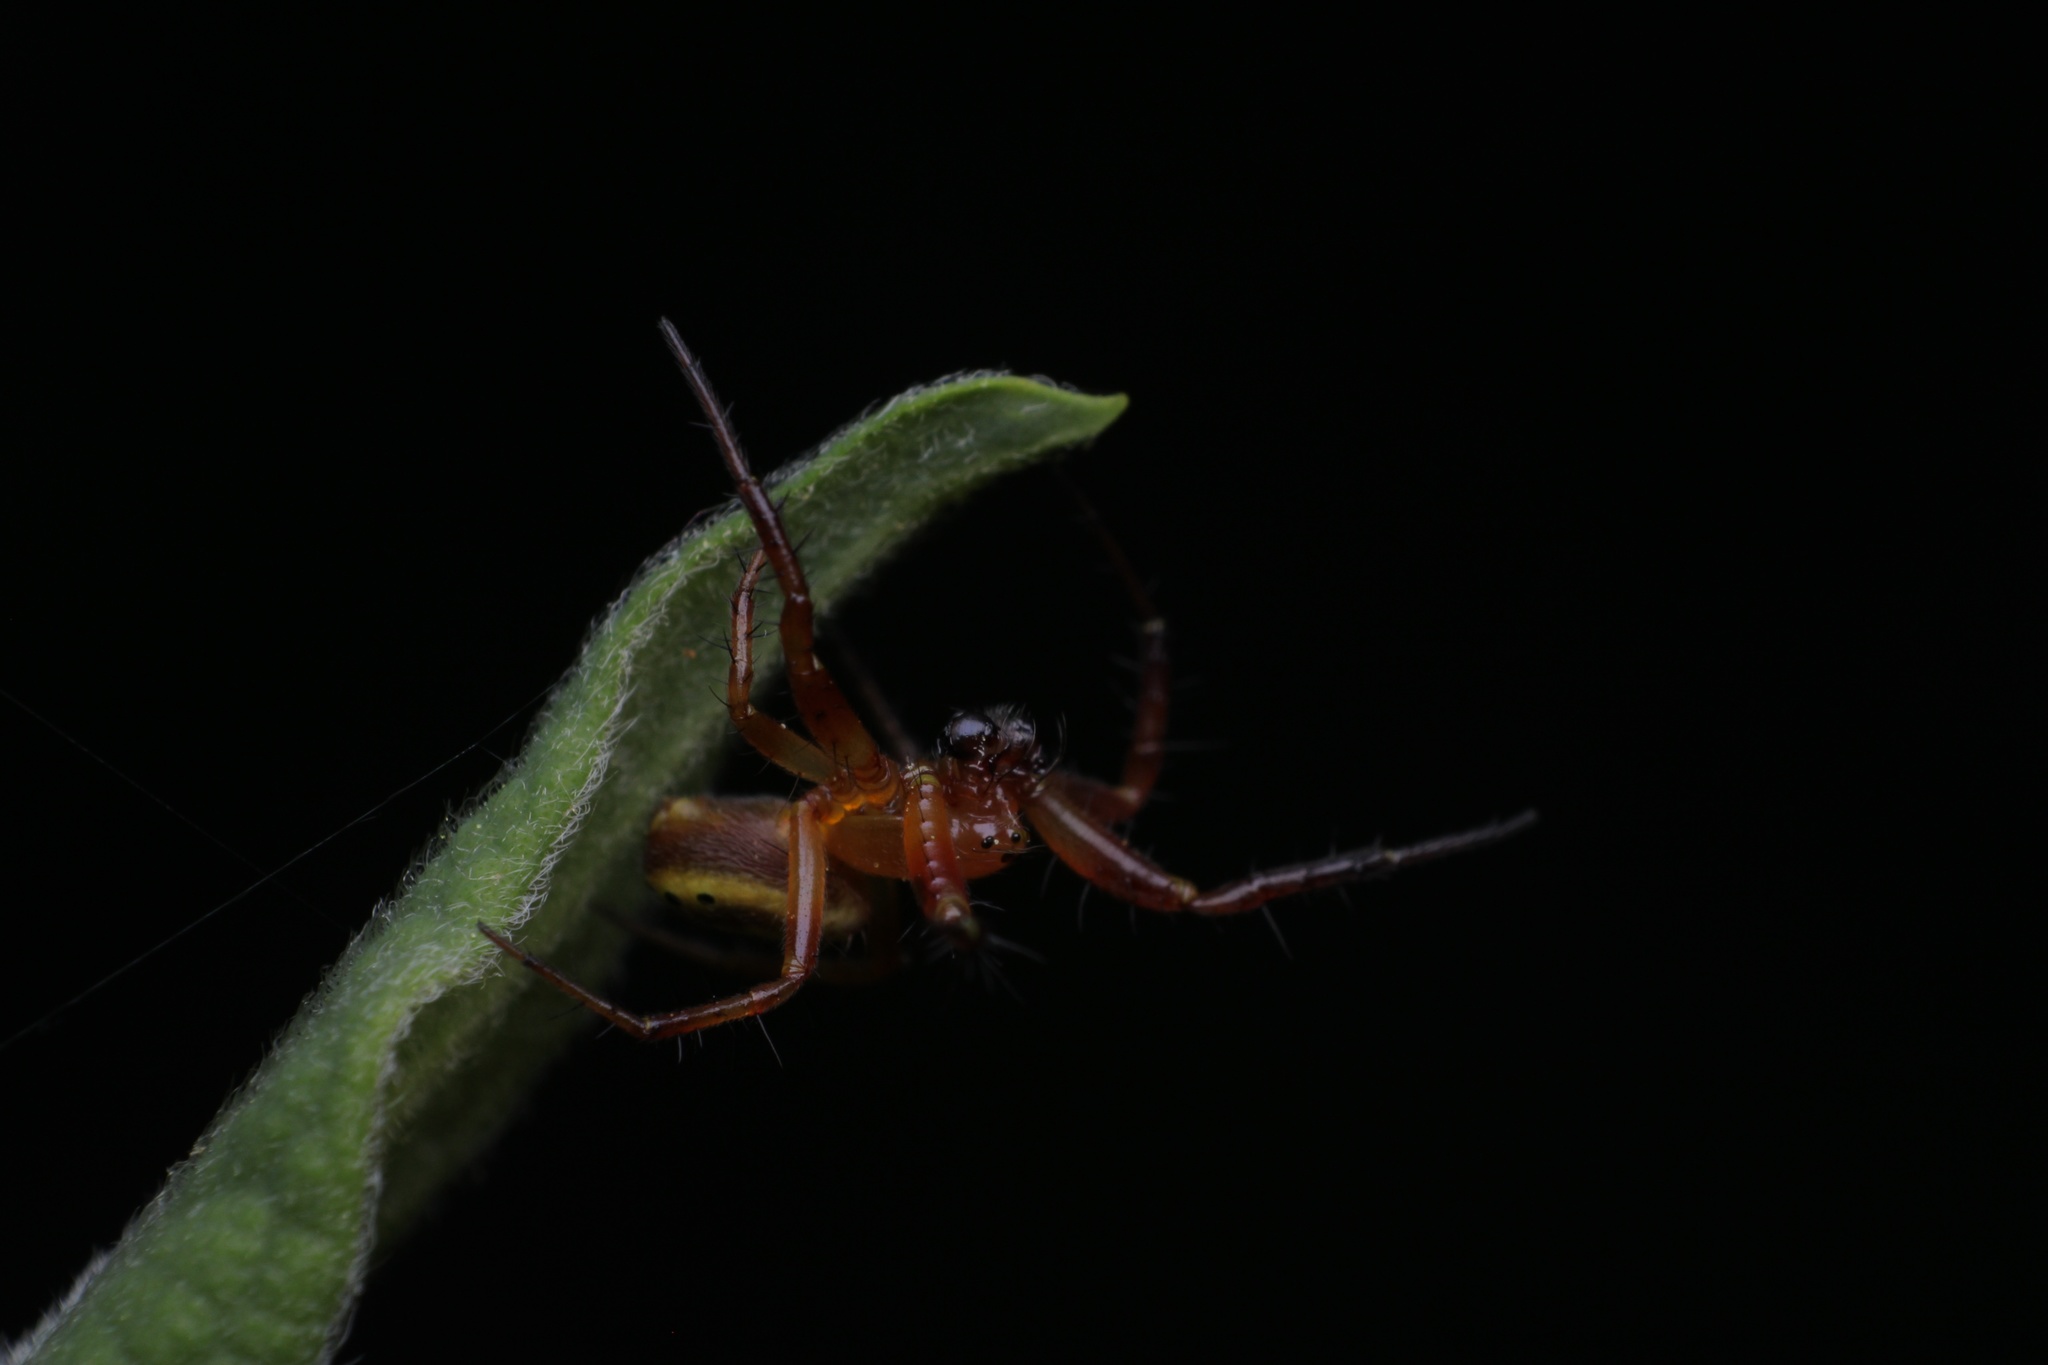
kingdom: Animalia
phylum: Arthropoda
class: Arachnida
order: Araneae
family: Araneidae
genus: Araniella
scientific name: Araniella displicata
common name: Sixspotted orb weaver
